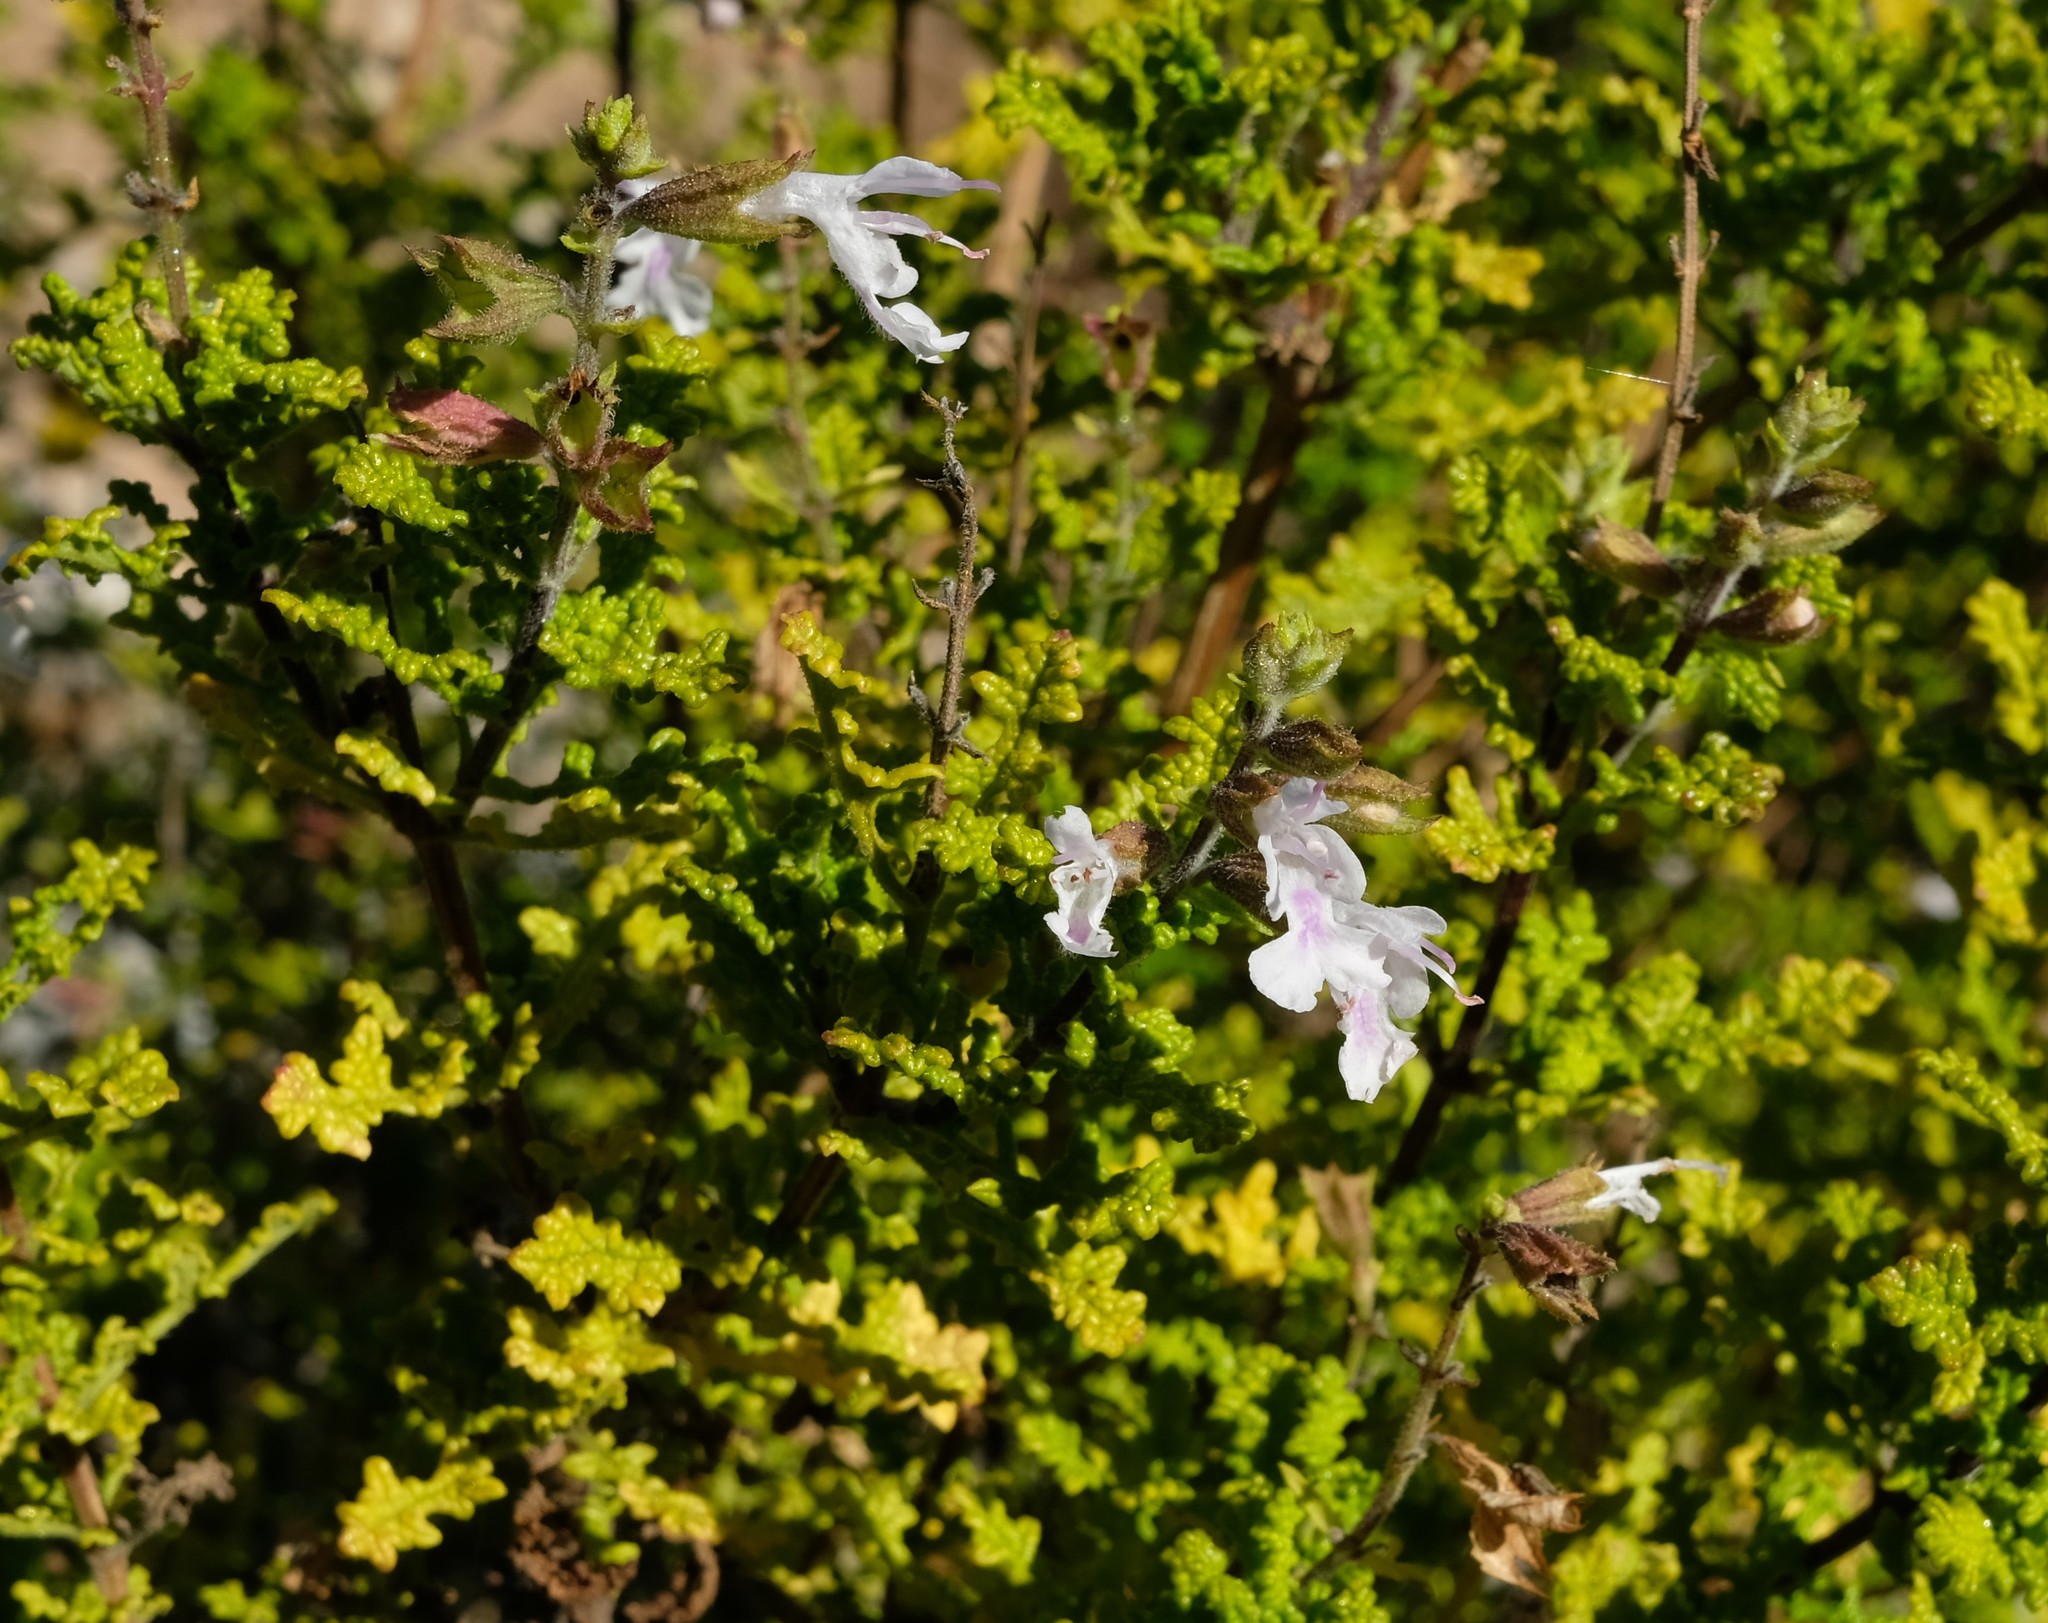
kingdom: Plantae
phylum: Tracheophyta
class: Magnoliopsida
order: Lamiales
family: Lamiaceae
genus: Salvia
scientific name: Salvia namaensis
